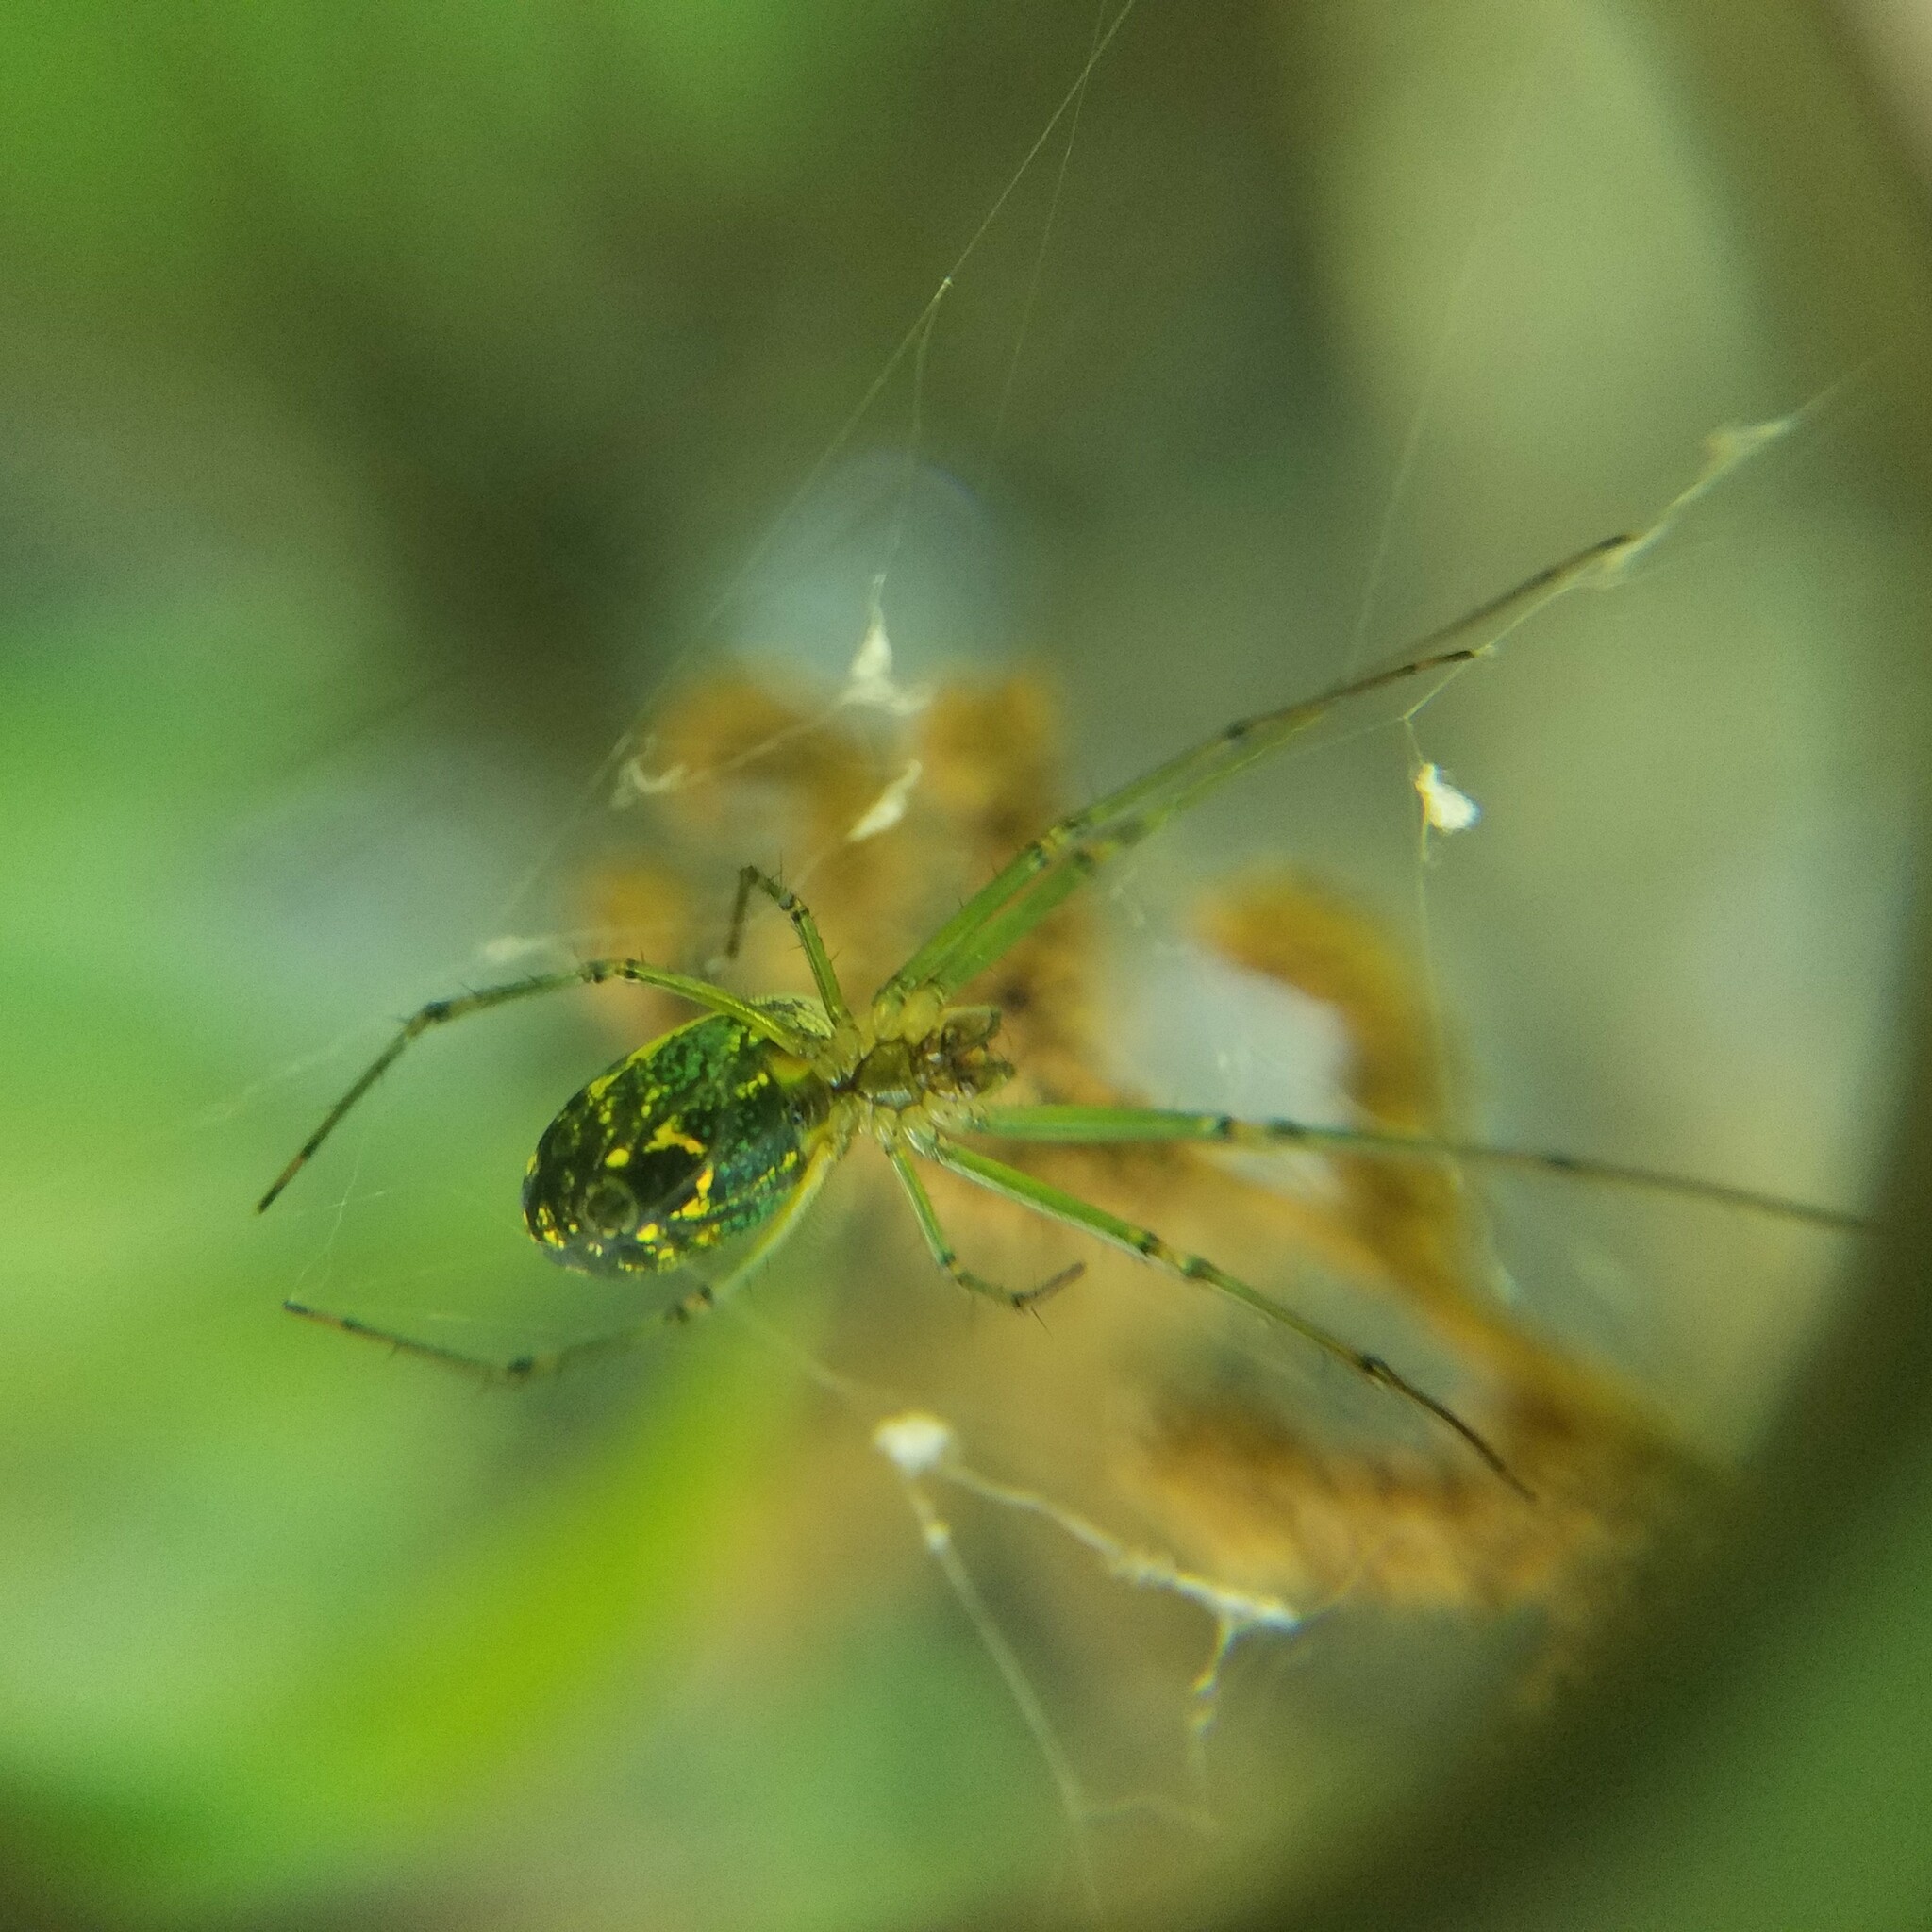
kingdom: Animalia
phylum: Arthropoda
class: Arachnida
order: Araneae
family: Tetragnathidae
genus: Leucauge
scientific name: Leucauge venusta
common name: Longjawed orb weavers
